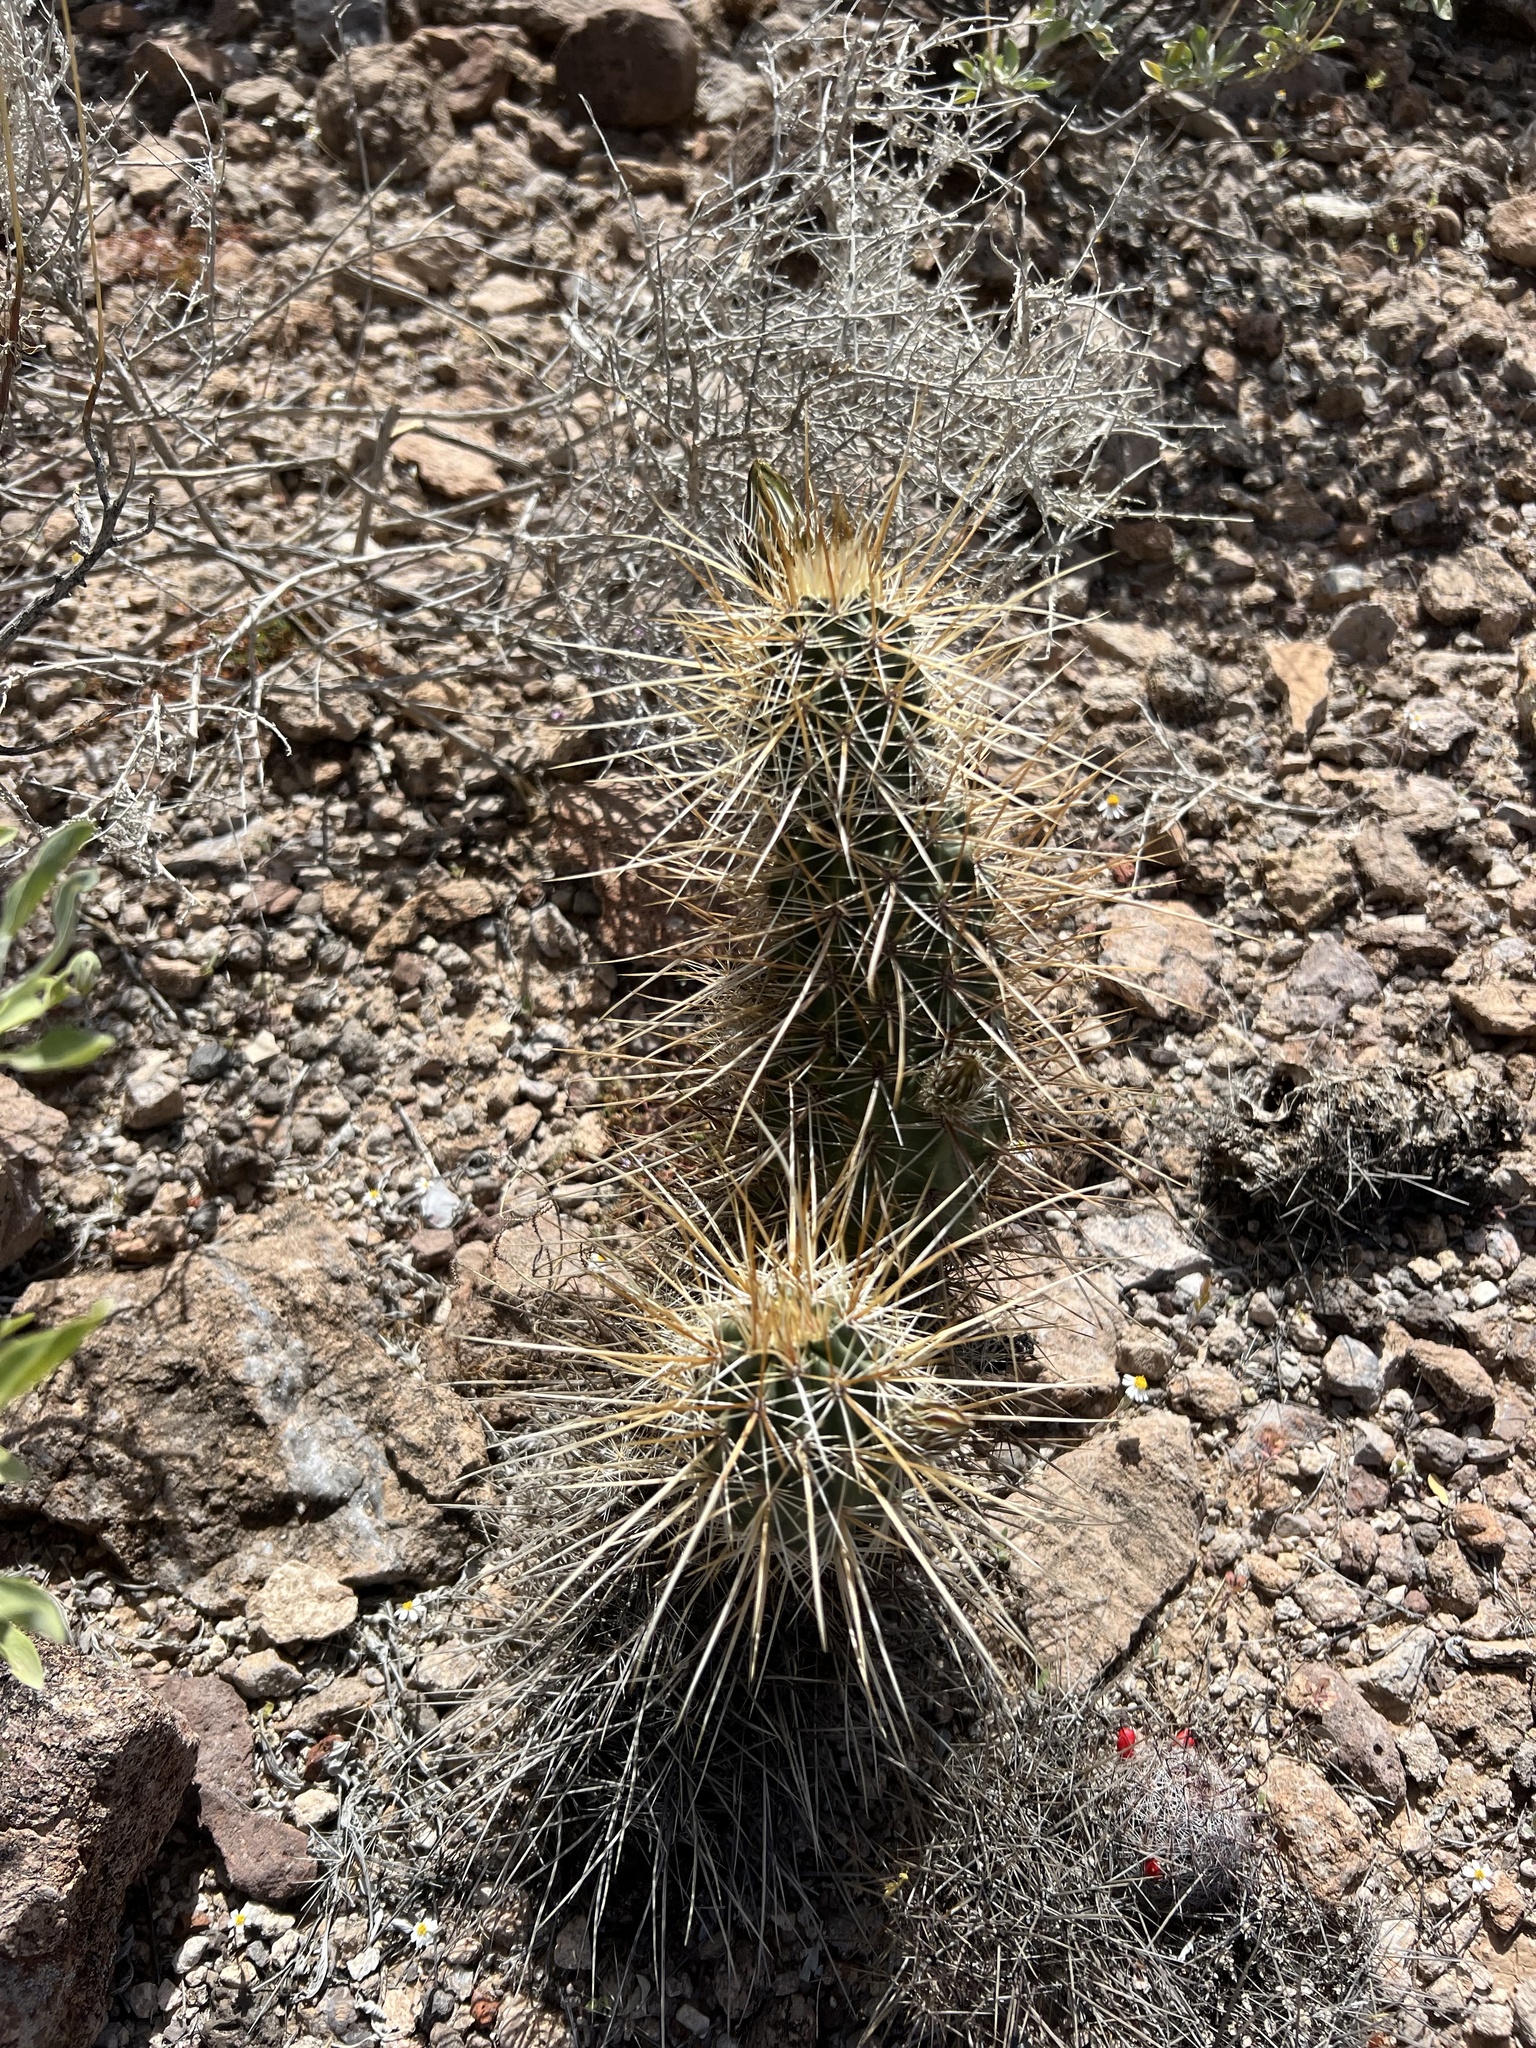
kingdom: Plantae
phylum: Tracheophyta
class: Magnoliopsida
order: Caryophyllales
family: Cactaceae
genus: Echinocereus
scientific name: Echinocereus engelmannii
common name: Engelmann's hedgehog cactus
